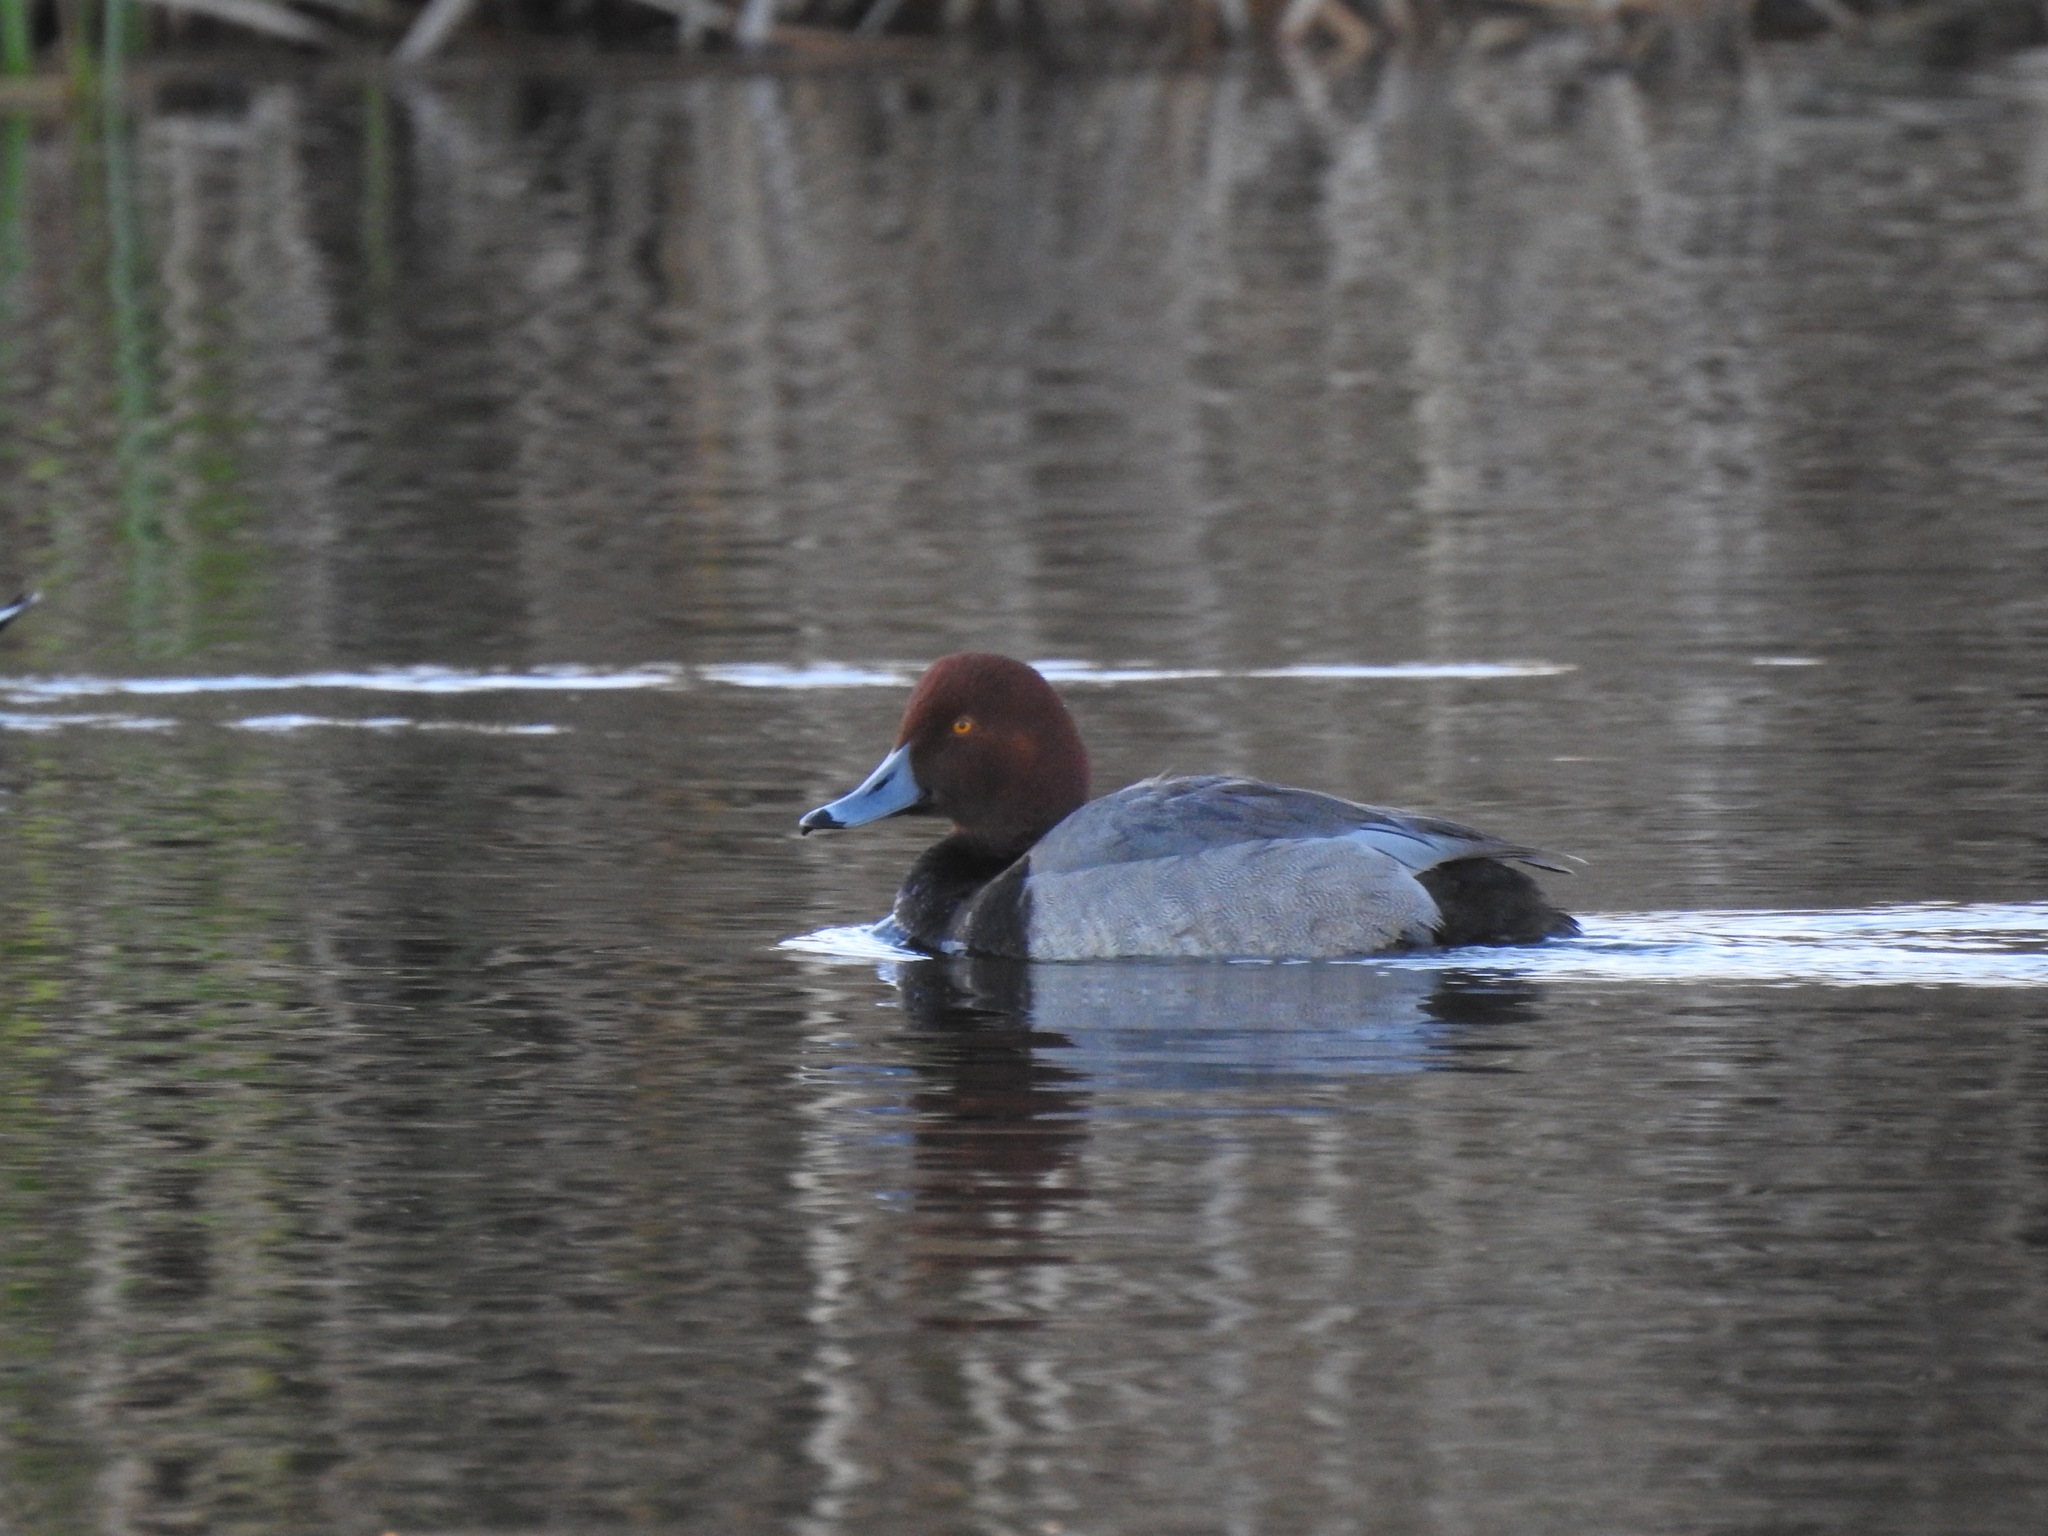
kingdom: Animalia
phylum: Chordata
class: Aves
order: Anseriformes
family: Anatidae
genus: Aythya
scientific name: Aythya americana
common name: Redhead
